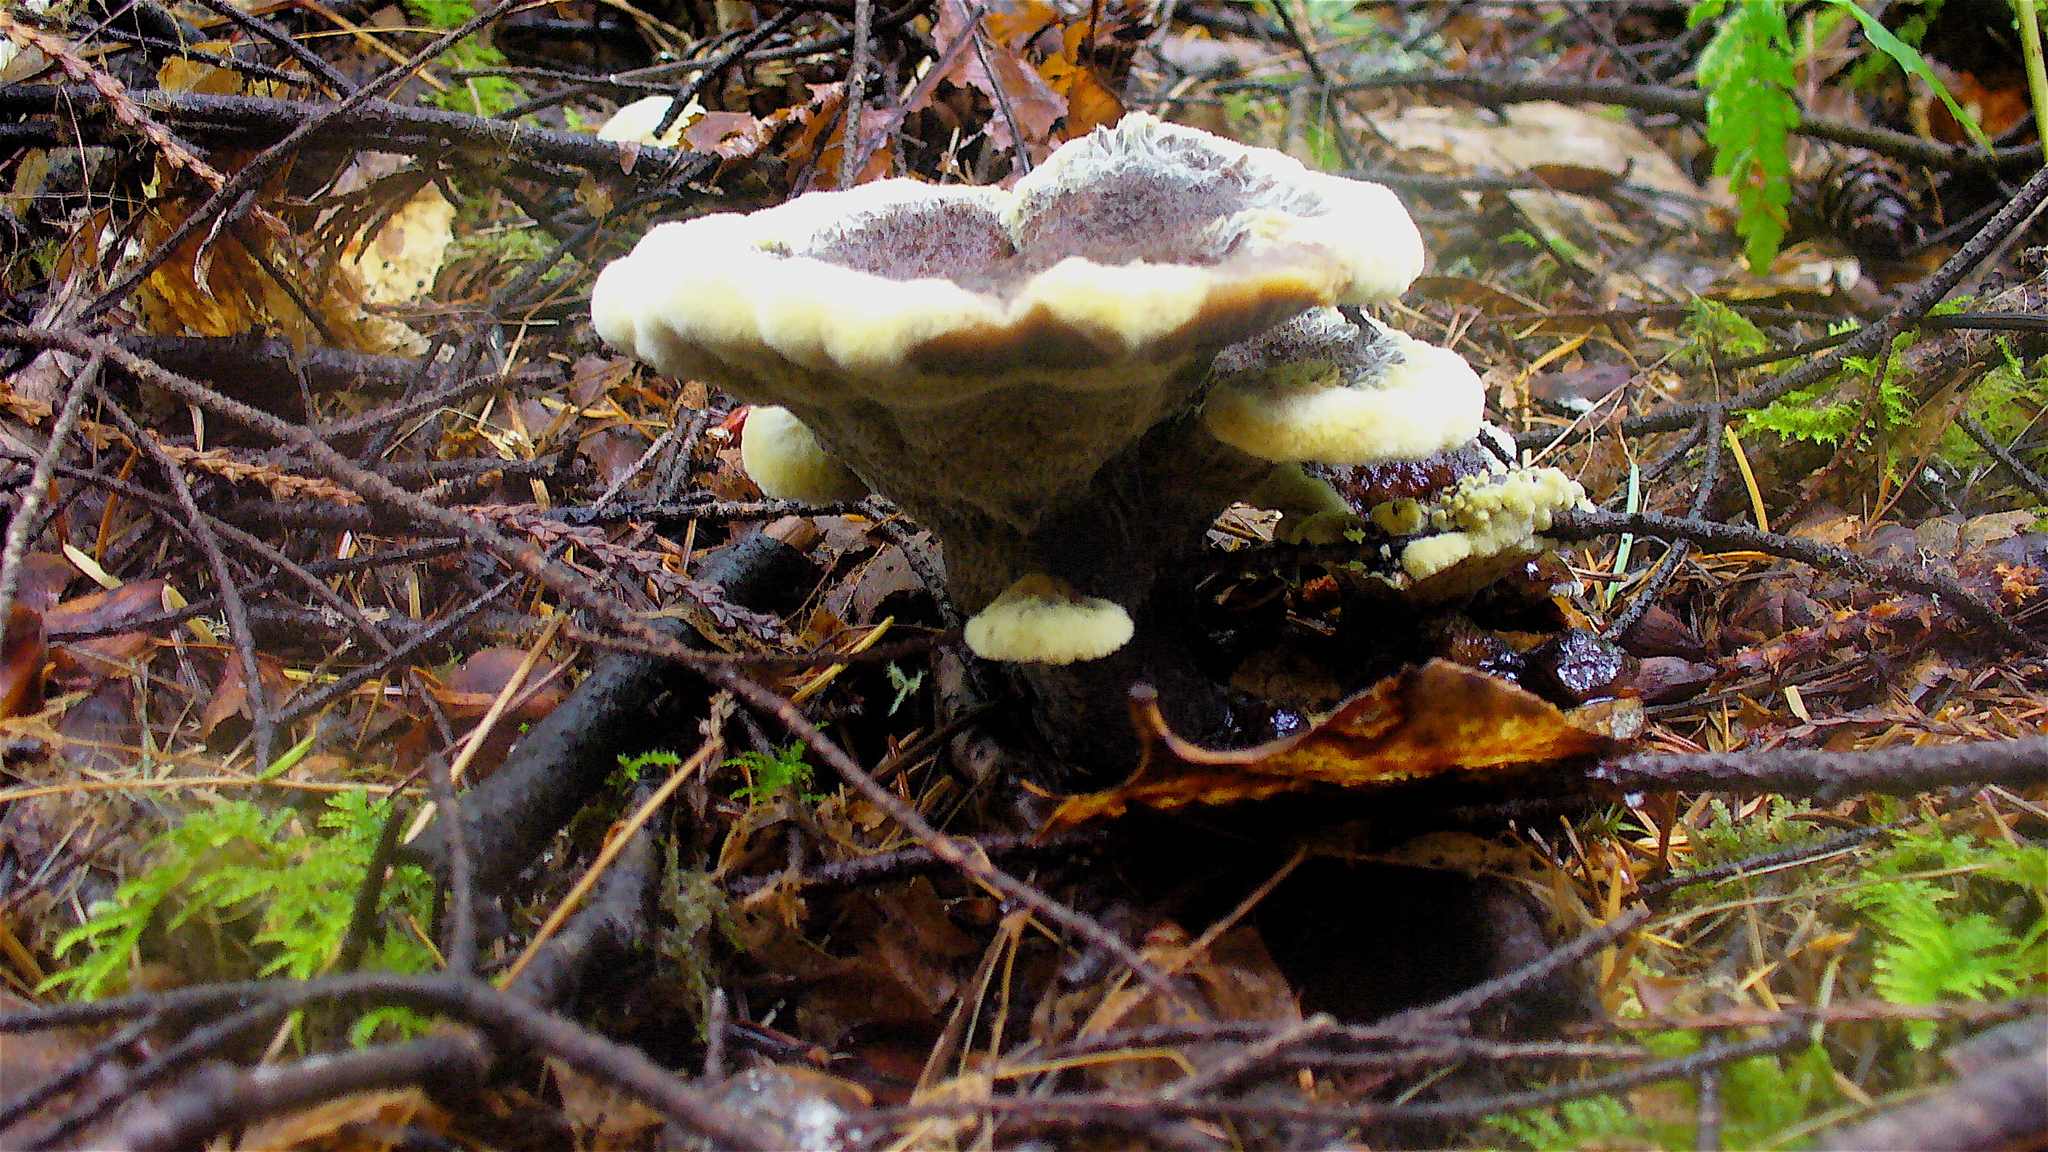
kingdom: Fungi
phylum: Basidiomycota
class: Agaricomycetes
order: Polyporales
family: Laetiporaceae
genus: Phaeolus
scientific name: Phaeolus schweinitzii
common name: Dyer's mazegill
